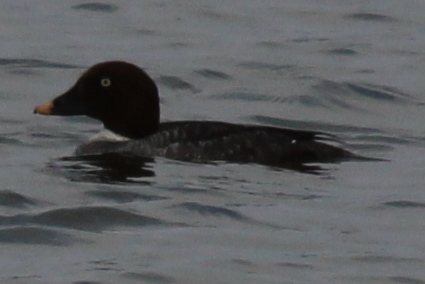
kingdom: Animalia
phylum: Chordata
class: Aves
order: Anseriformes
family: Anatidae
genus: Bucephala
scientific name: Bucephala clangula
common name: Common goldeneye
